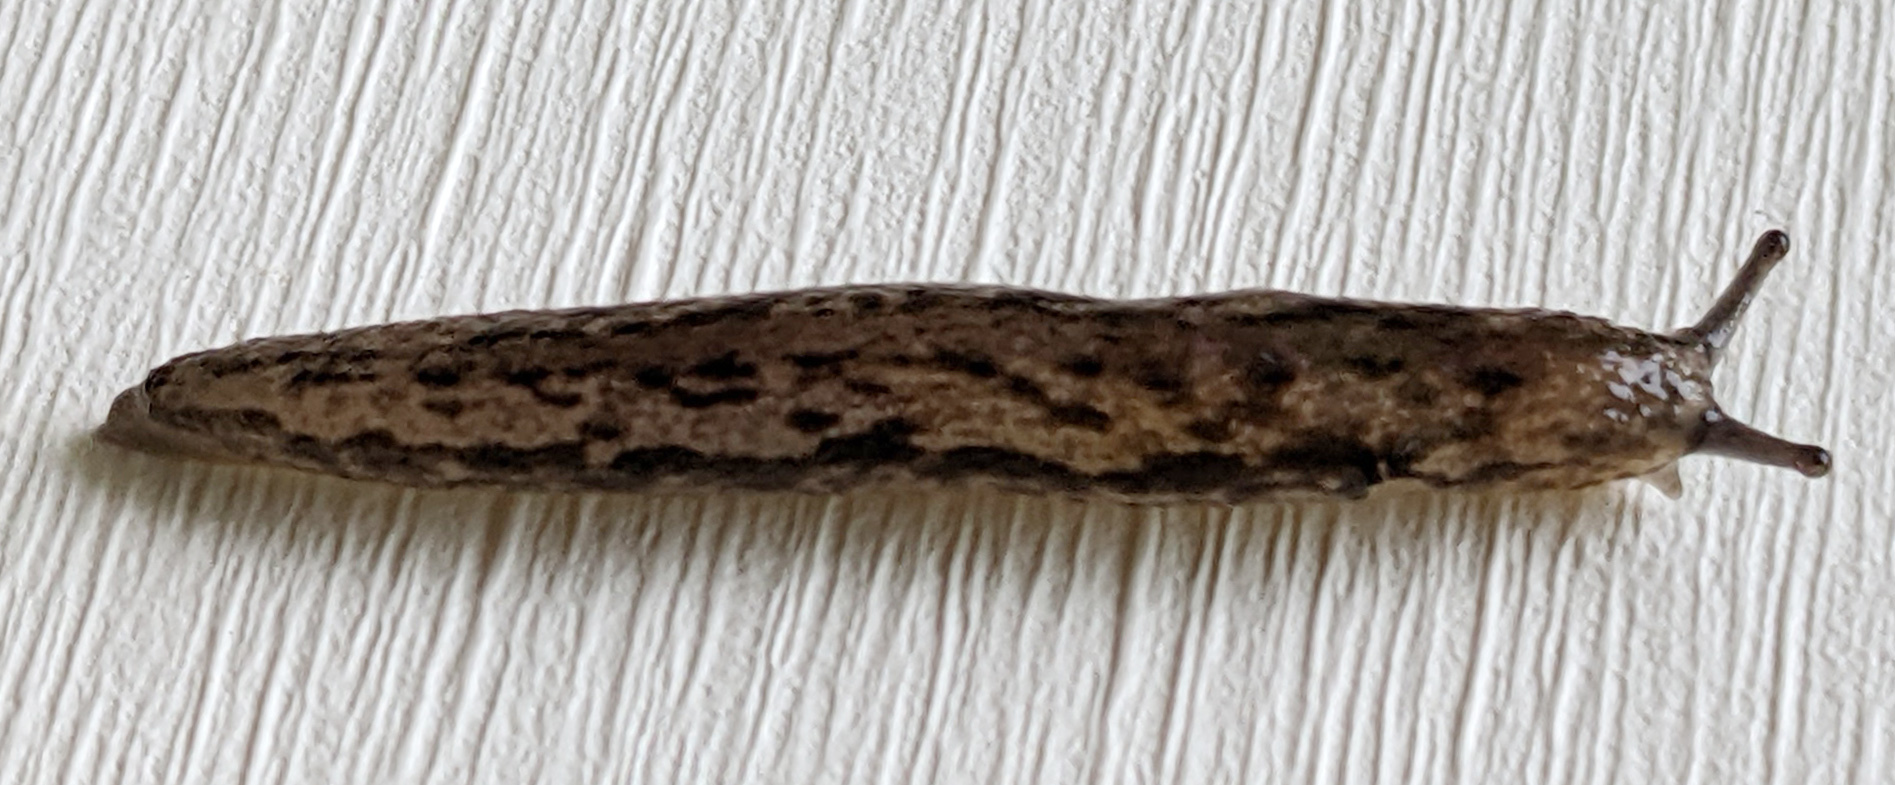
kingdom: Animalia
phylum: Mollusca
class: Gastropoda
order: Stylommatophora
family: Philomycidae
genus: Megapallifera
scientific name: Megapallifera mutabilis
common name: Changeable mantleslug
